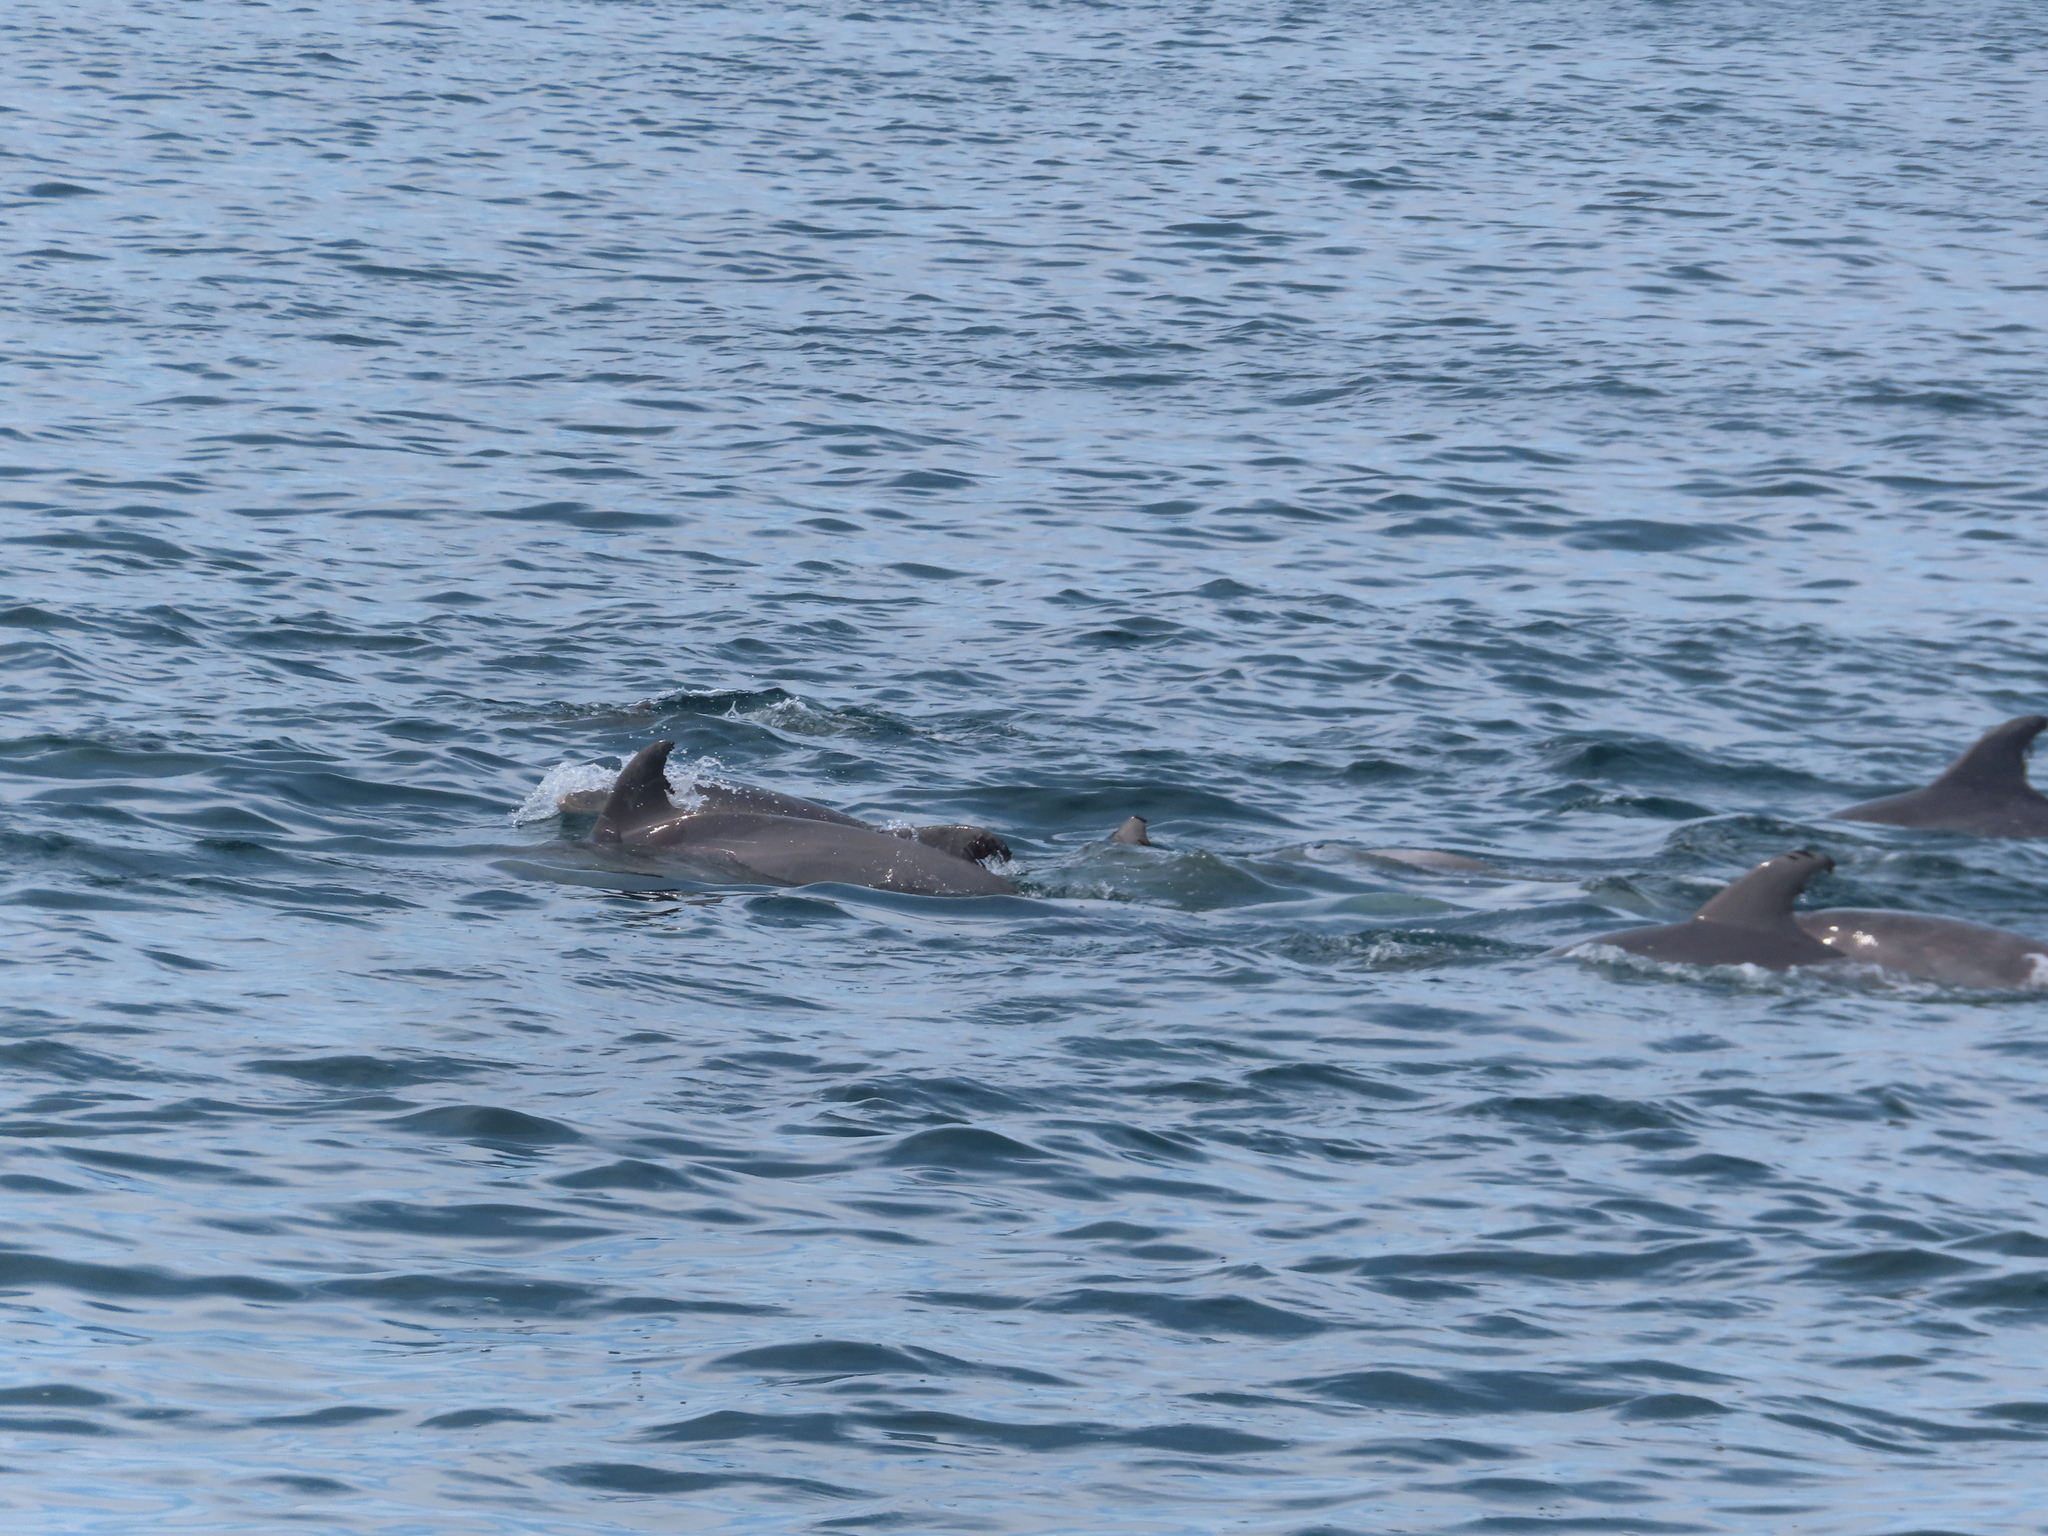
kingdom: Animalia
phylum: Chordata
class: Mammalia
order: Cetacea
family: Delphinidae
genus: Tursiops
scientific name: Tursiops truncatus
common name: Bottlenose dolphin
